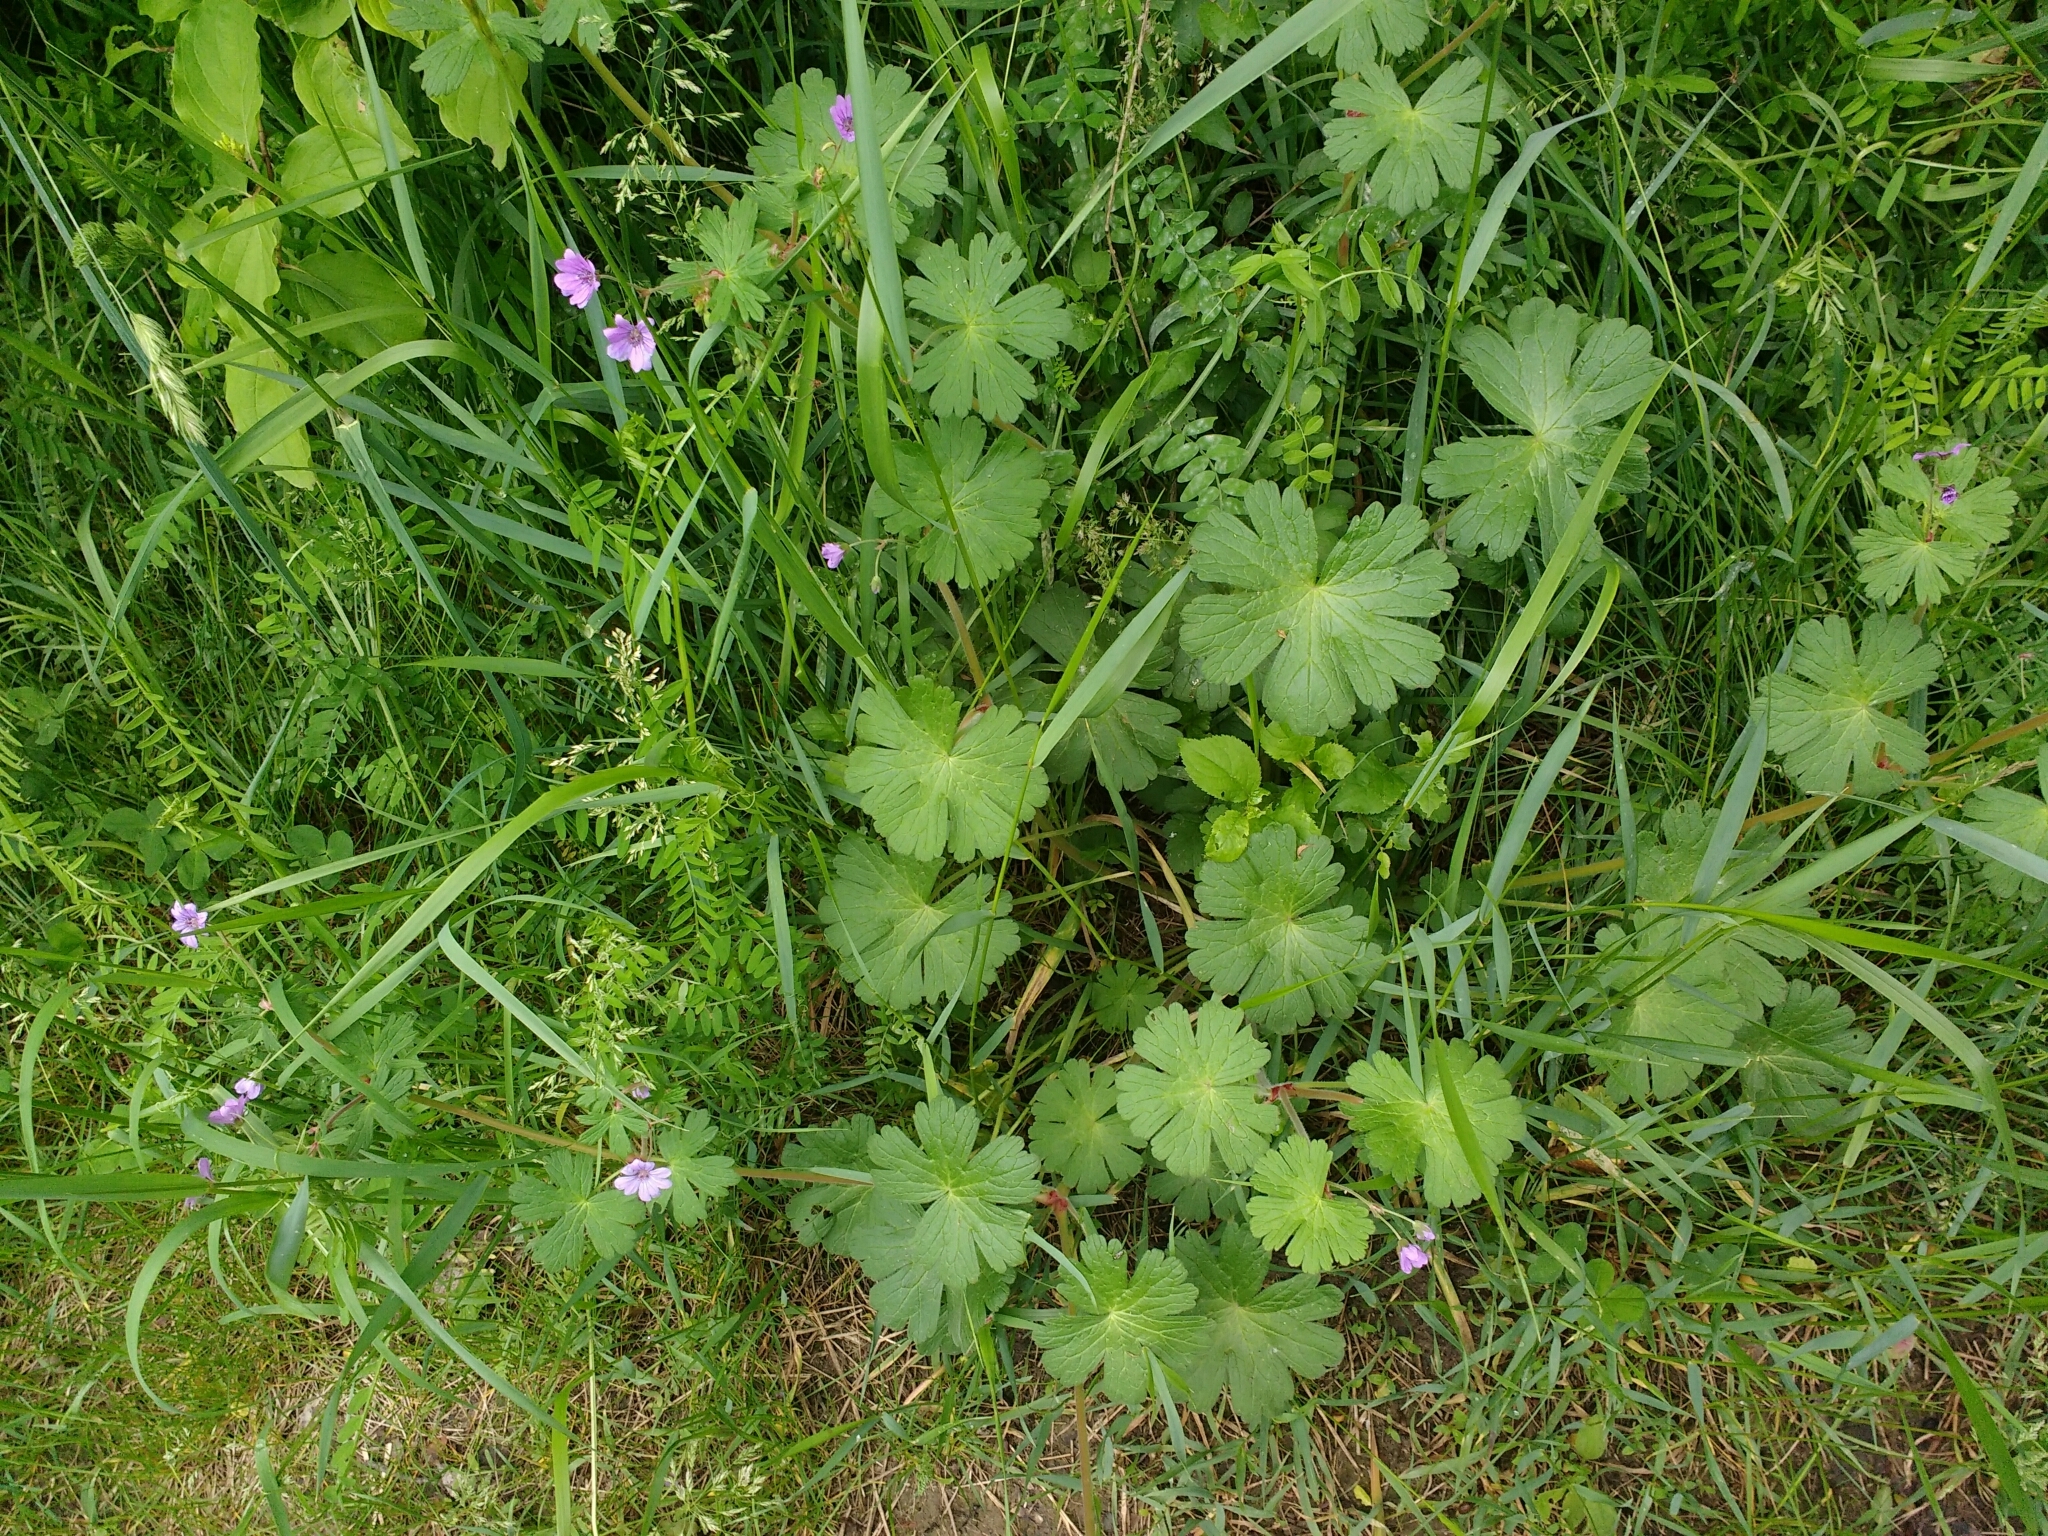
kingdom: Plantae
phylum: Tracheophyta
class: Magnoliopsida
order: Geraniales
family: Geraniaceae
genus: Geranium
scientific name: Geranium pyrenaicum
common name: Hedgerow crane's-bill
